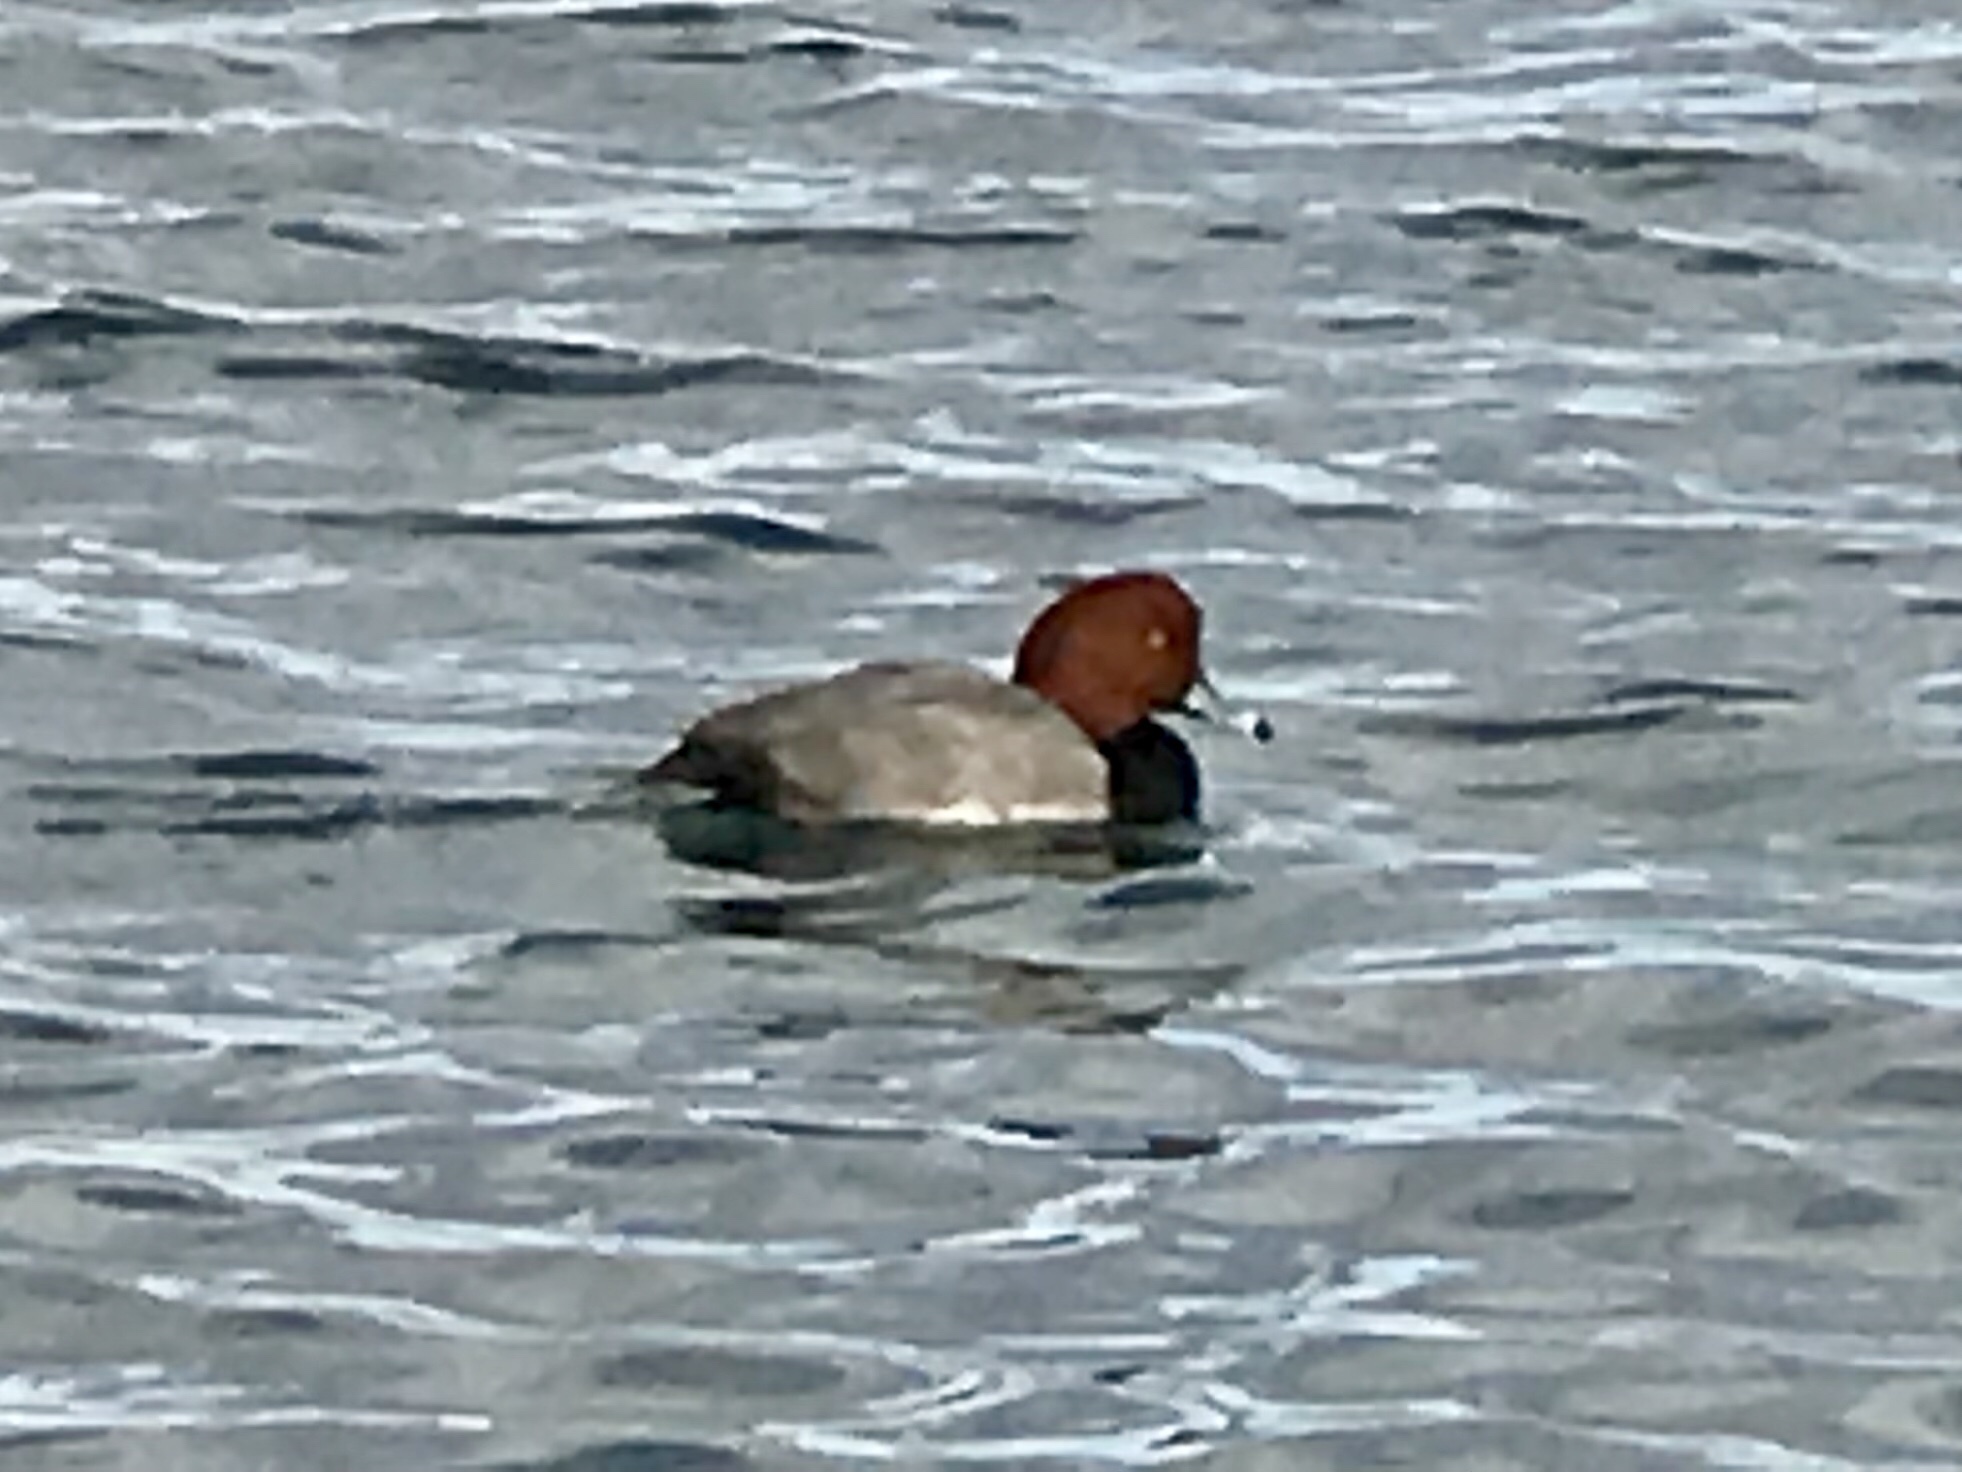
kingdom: Animalia
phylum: Chordata
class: Aves
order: Anseriformes
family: Anatidae
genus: Aythya
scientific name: Aythya americana
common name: Redhead
